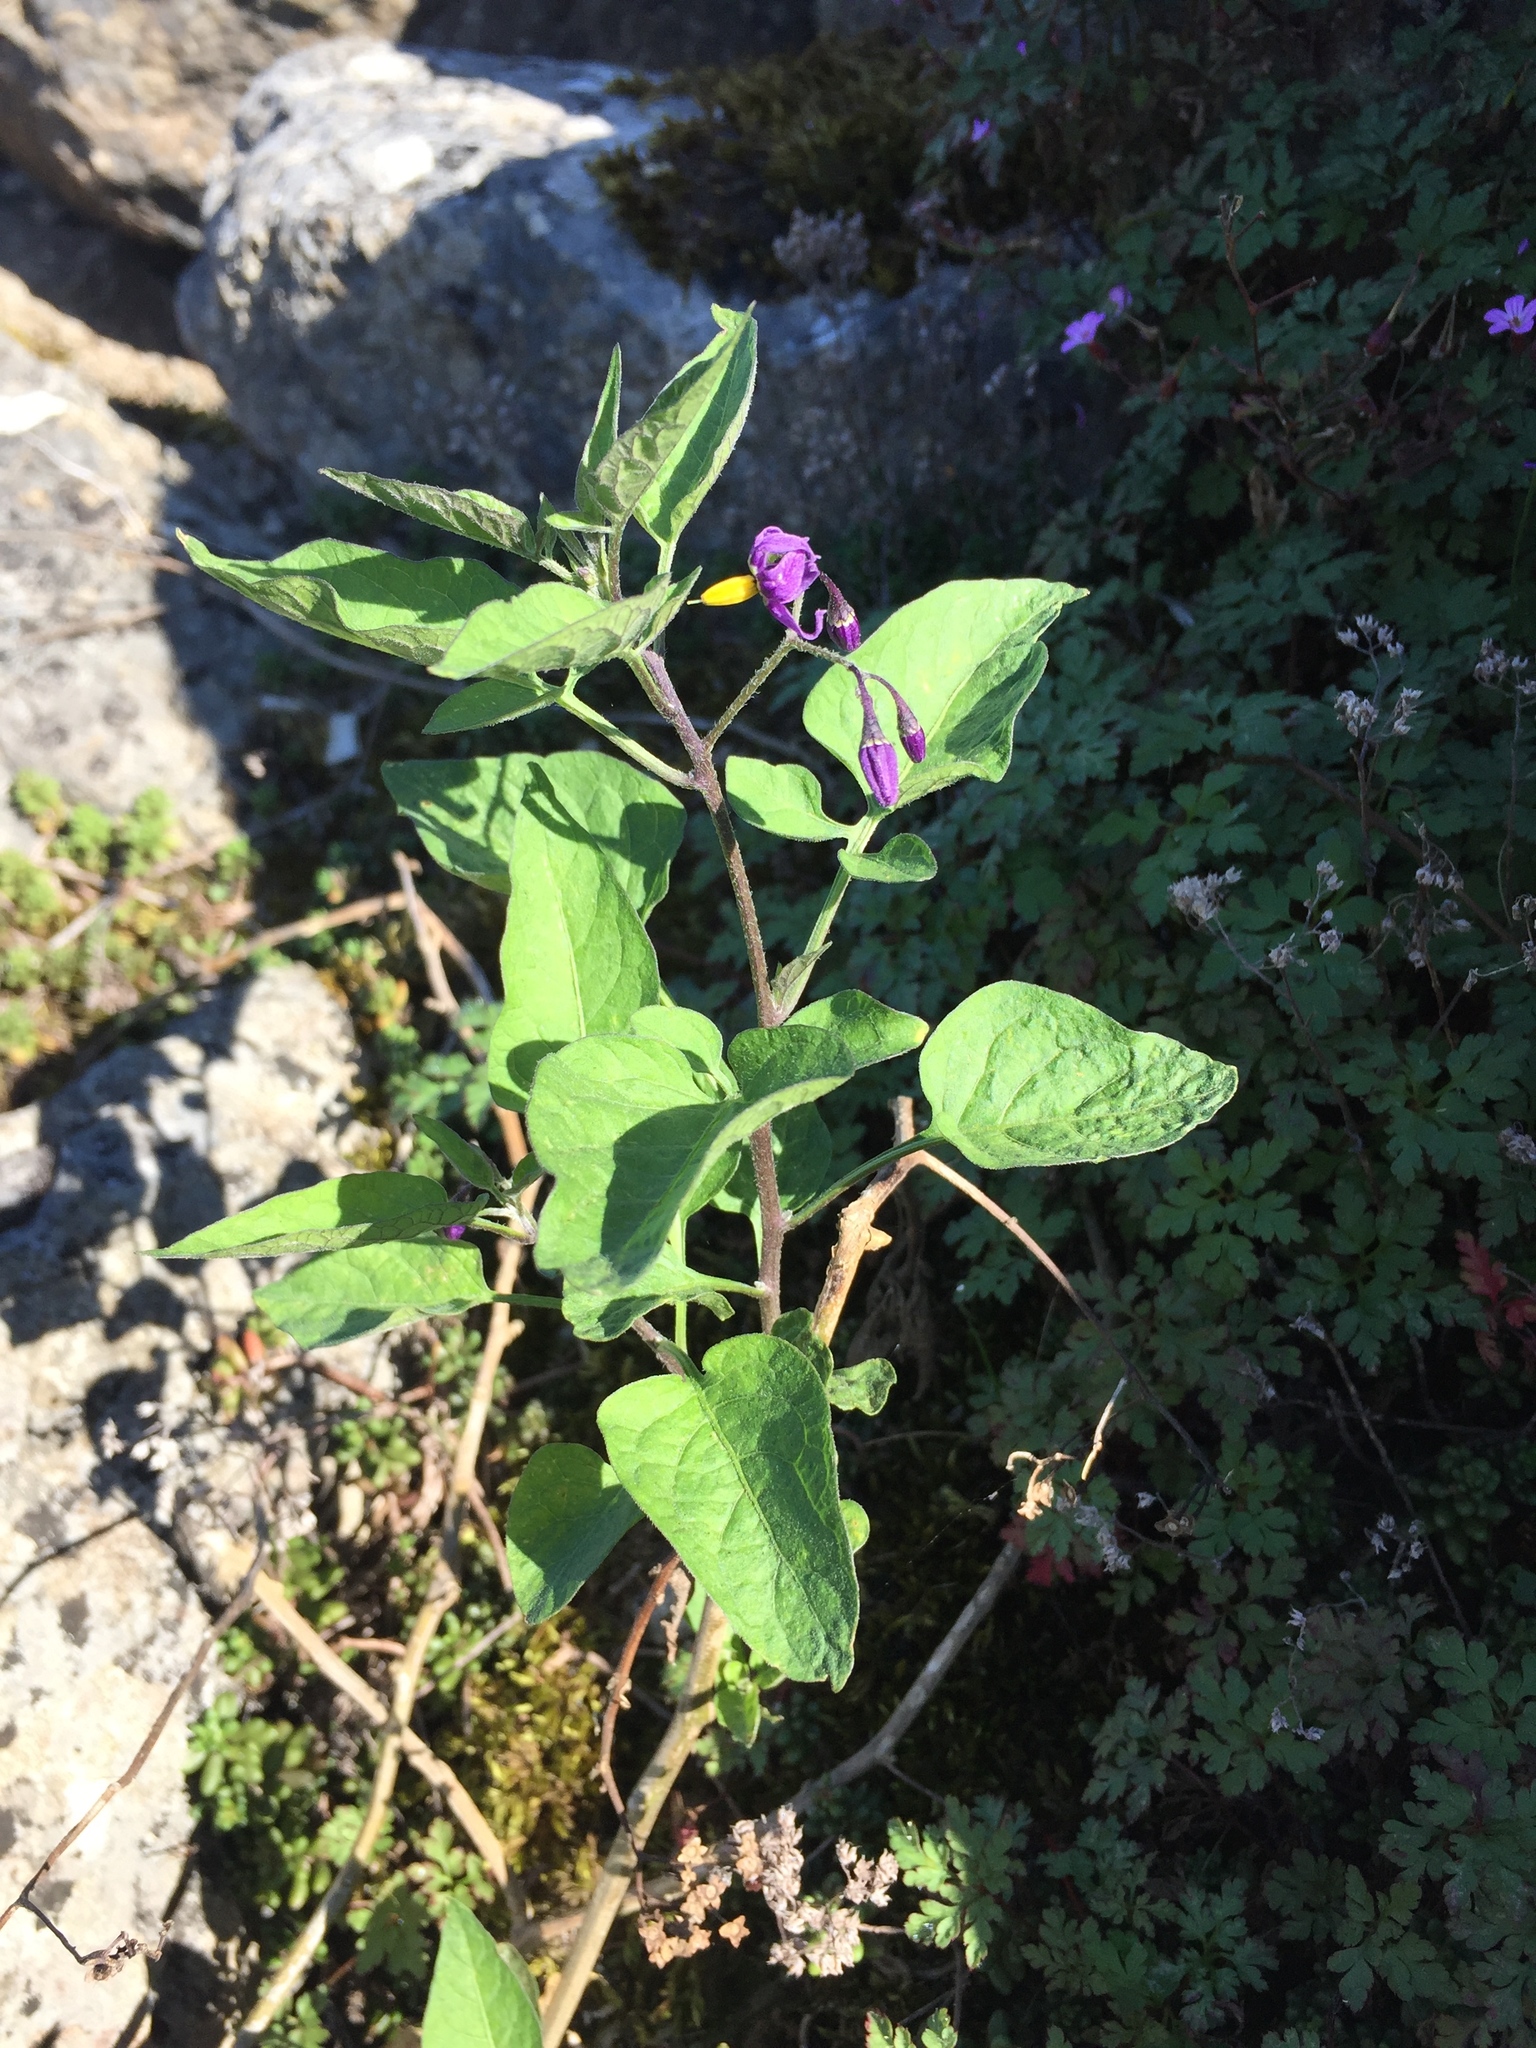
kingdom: Plantae
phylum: Tracheophyta
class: Magnoliopsida
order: Solanales
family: Solanaceae
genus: Solanum
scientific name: Solanum dulcamara
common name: Climbing nightshade
